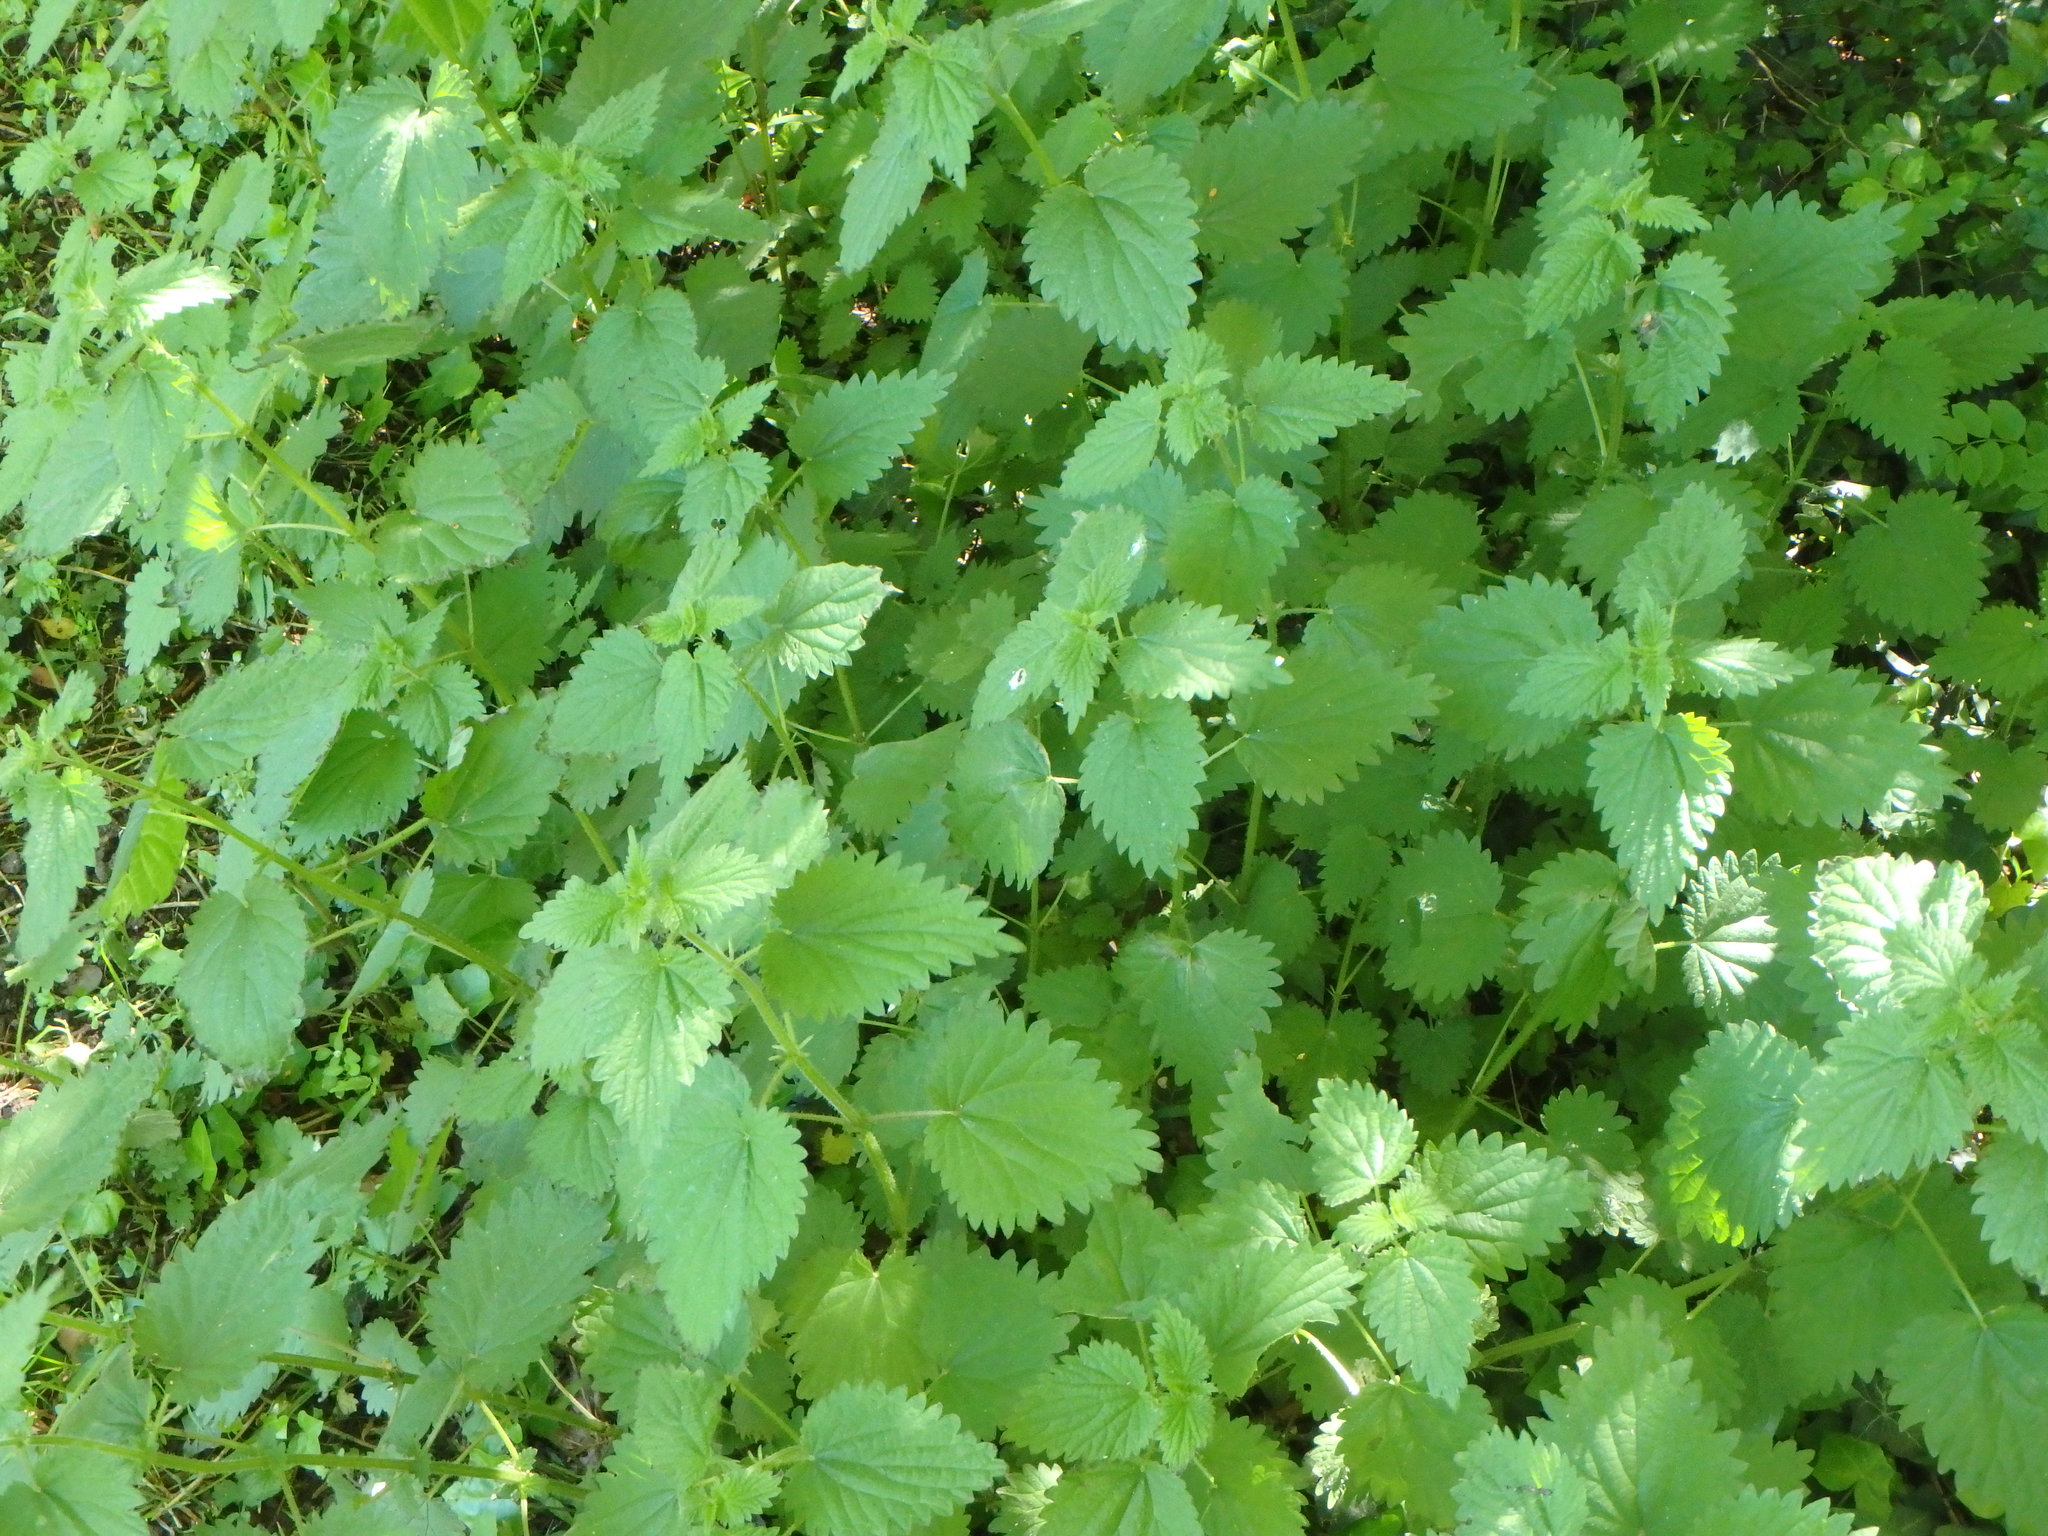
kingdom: Plantae
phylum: Tracheophyta
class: Magnoliopsida
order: Rosales
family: Urticaceae
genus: Urtica
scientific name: Urtica dioica
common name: Common nettle
